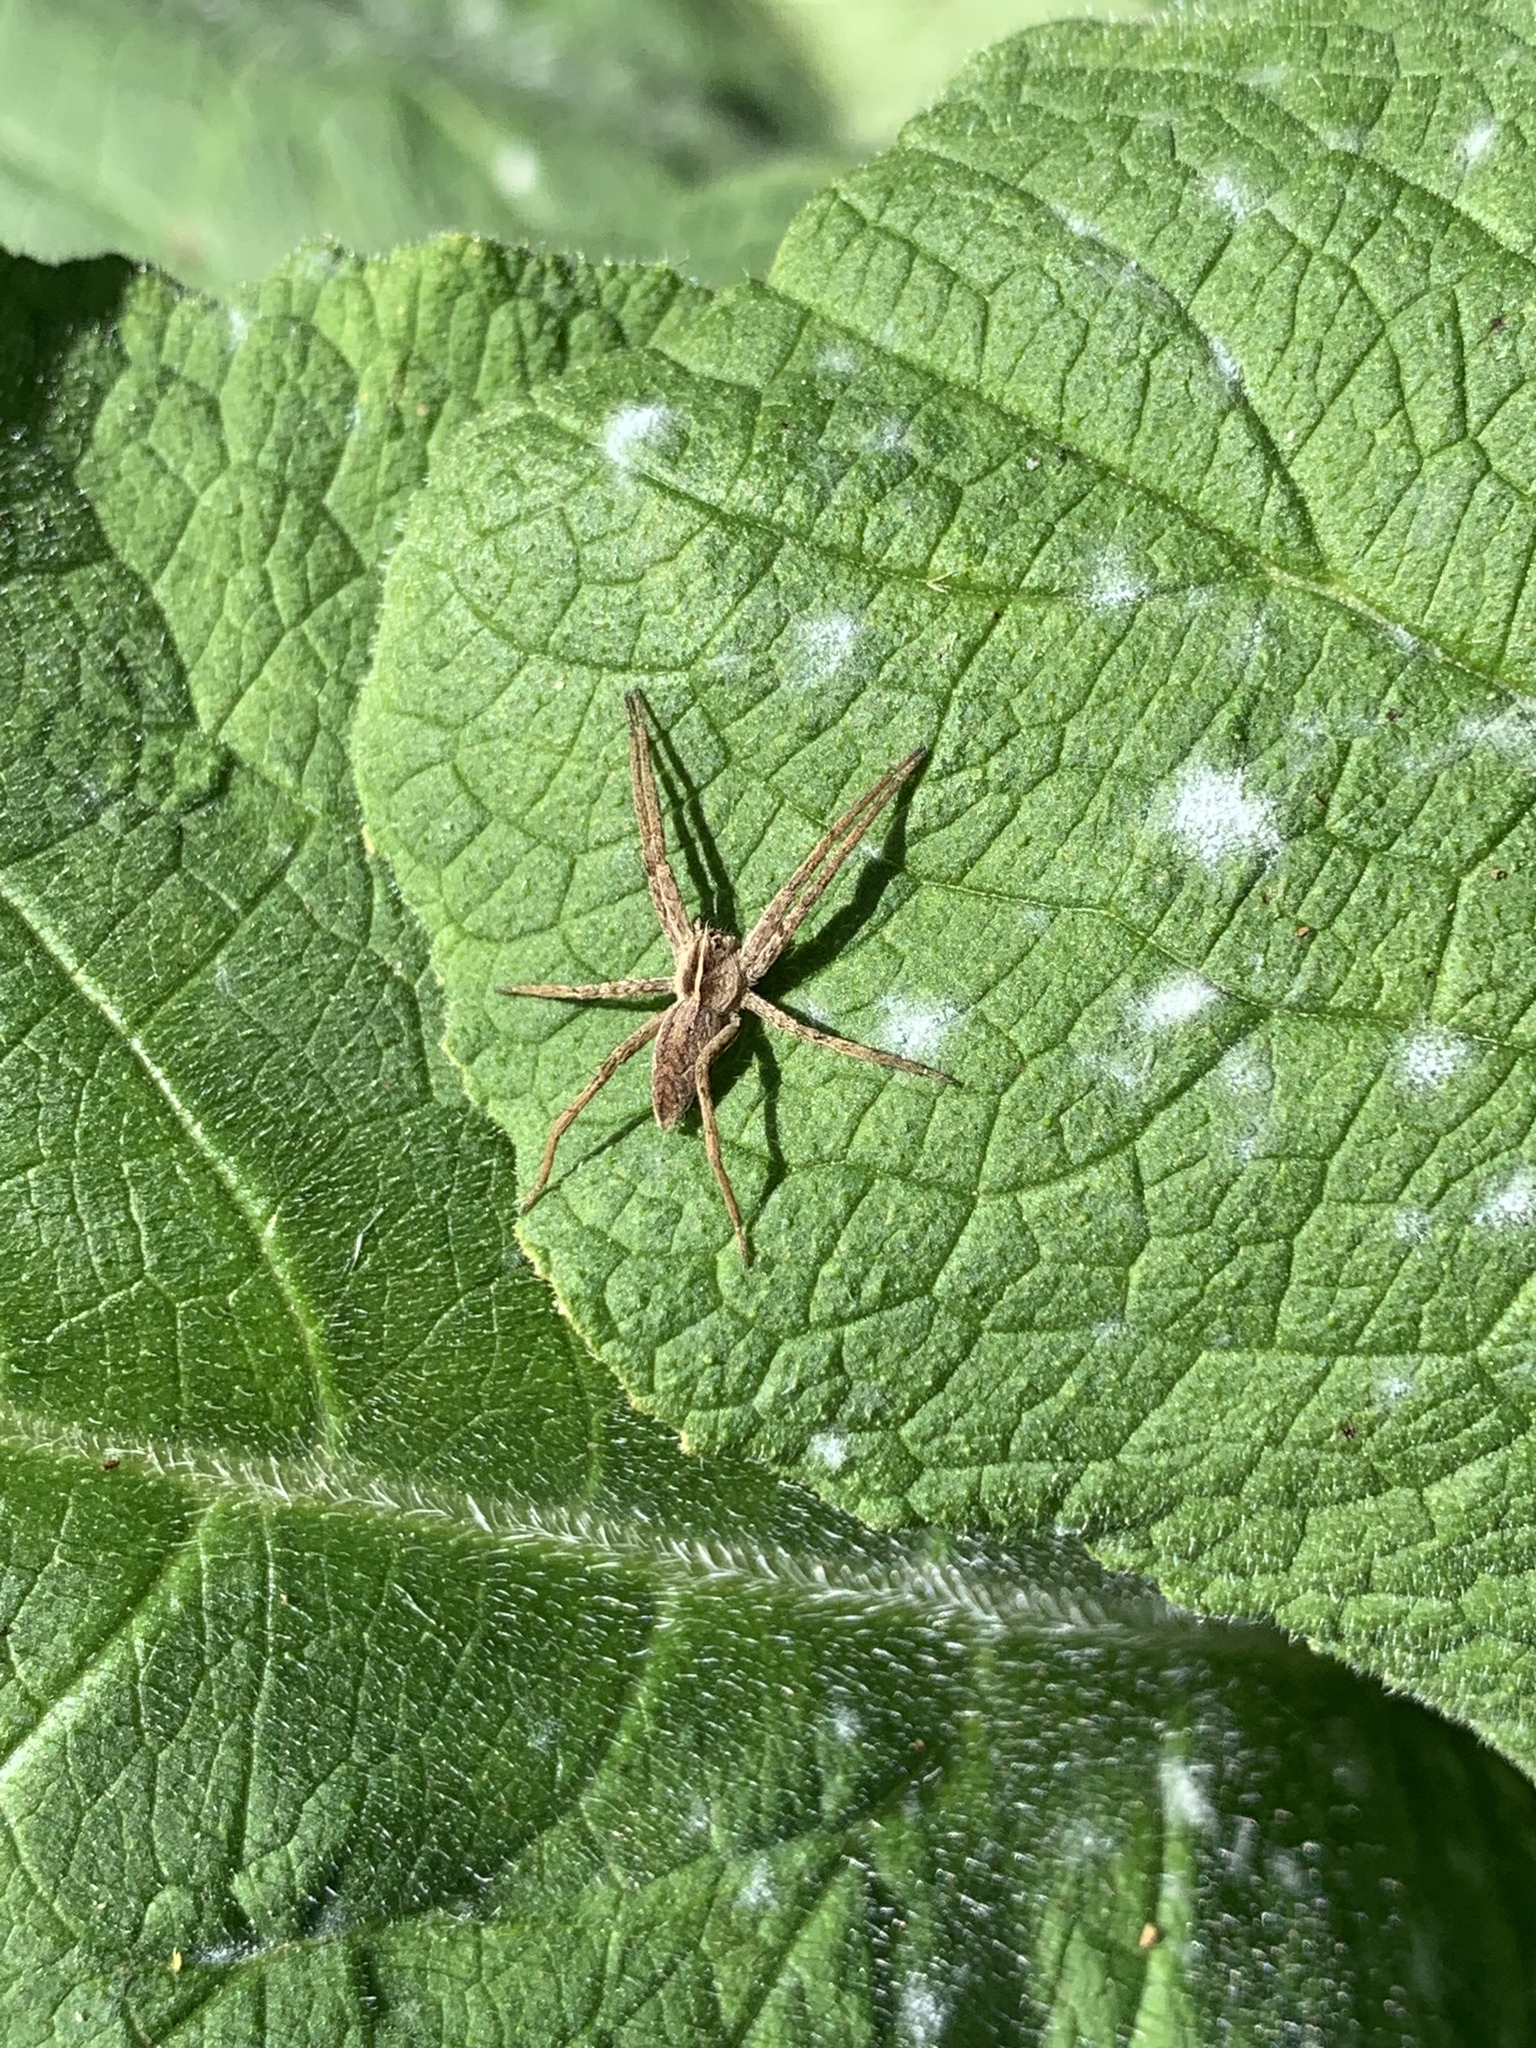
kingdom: Animalia
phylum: Arthropoda
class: Arachnida
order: Araneae
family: Pisauridae
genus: Pisaura
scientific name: Pisaura mirabilis
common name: Tent spider
